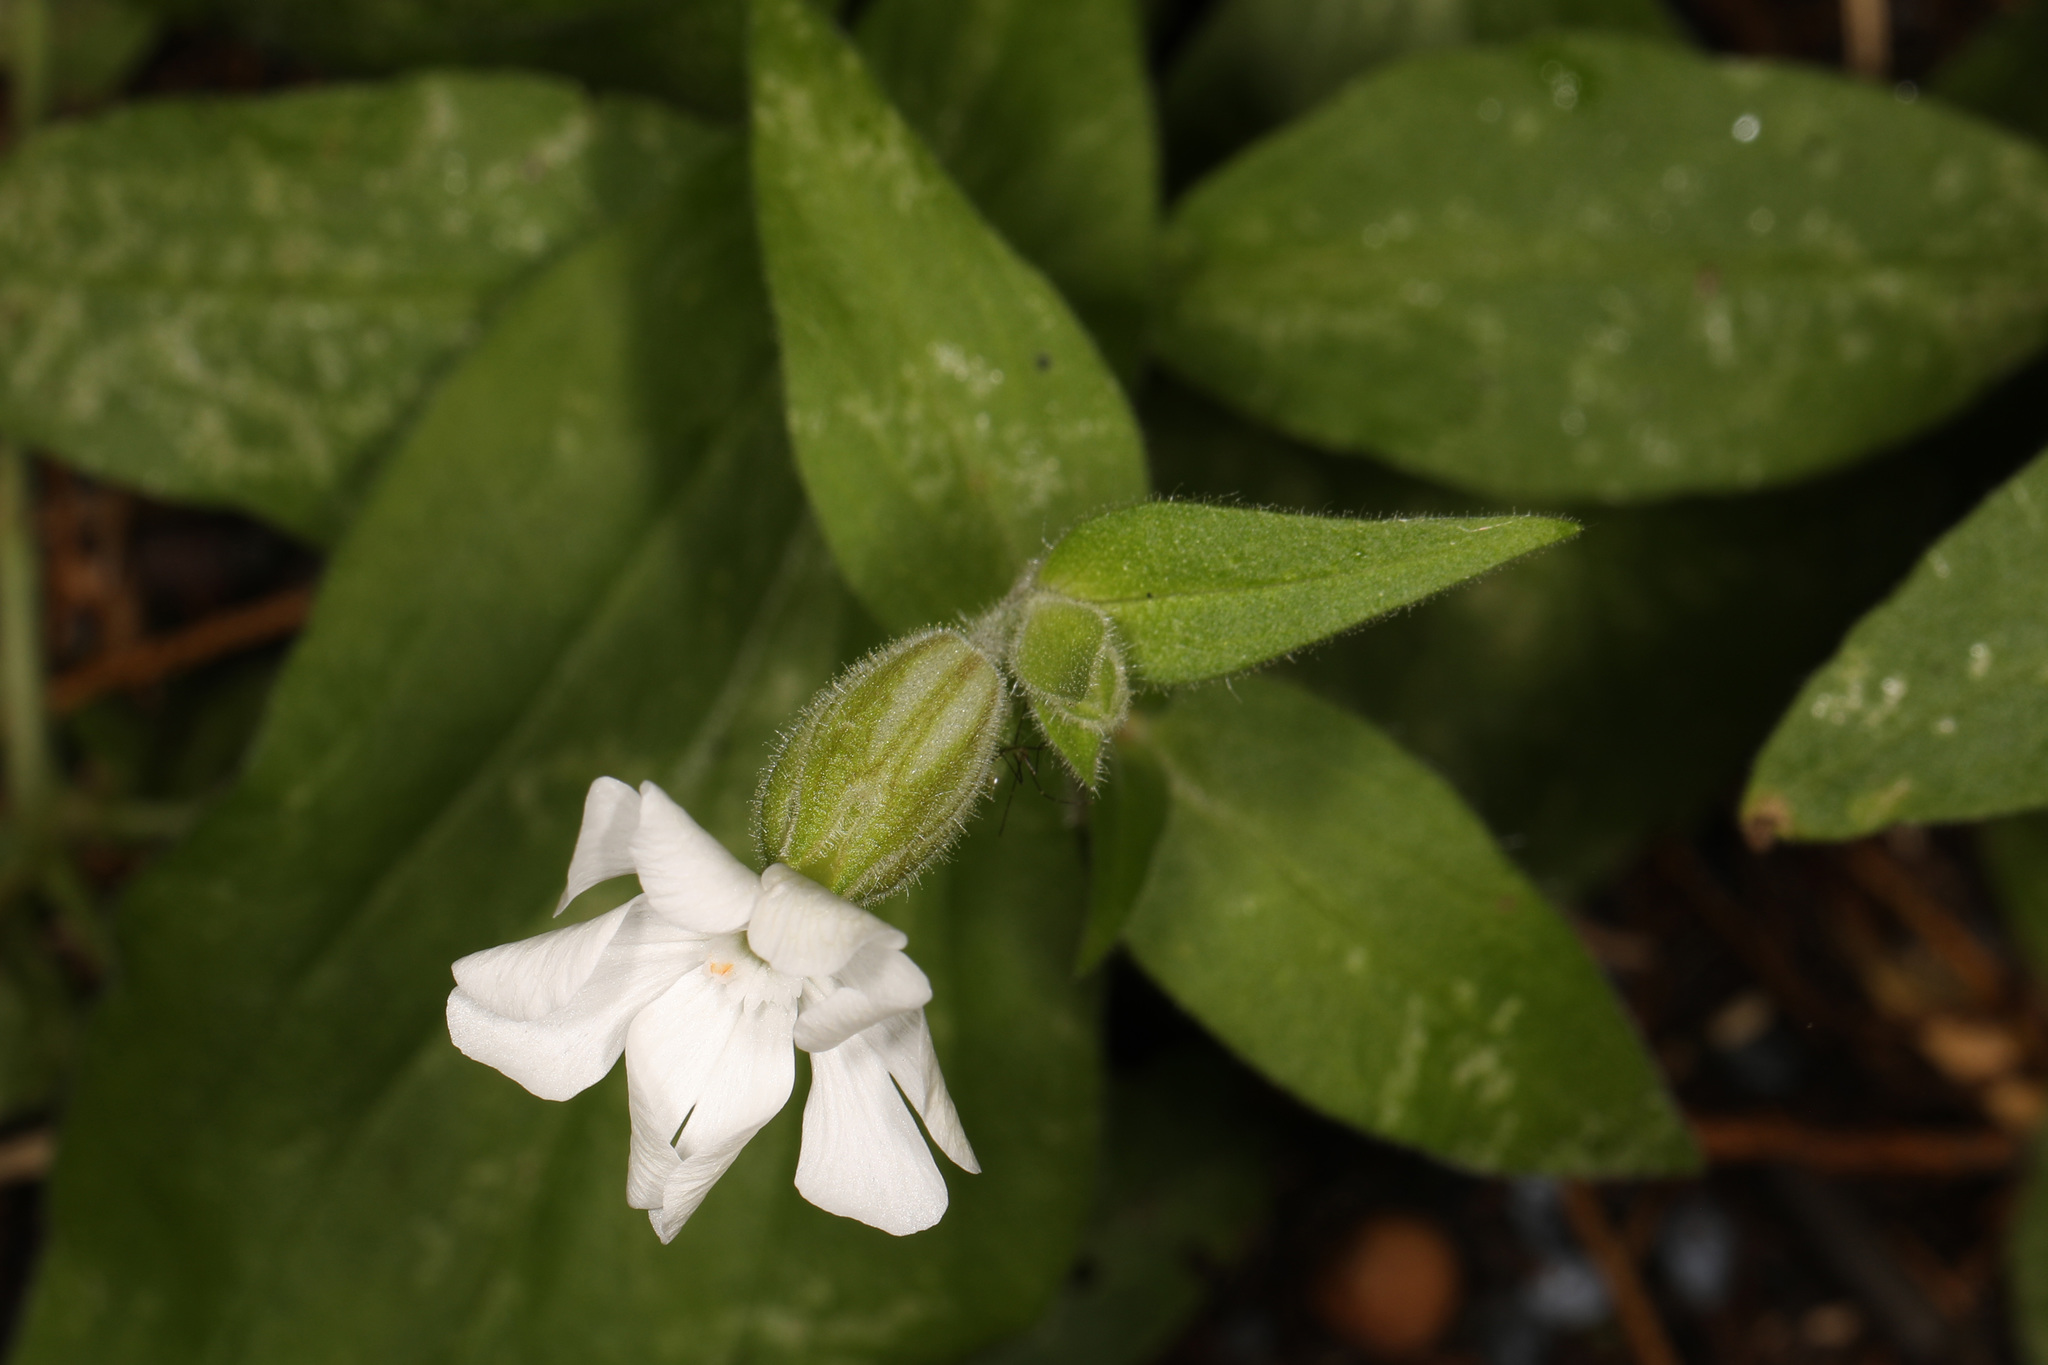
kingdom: Plantae
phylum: Tracheophyta
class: Magnoliopsida
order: Caryophyllales
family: Caryophyllaceae
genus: Silene
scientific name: Silene latifolia
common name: White campion
